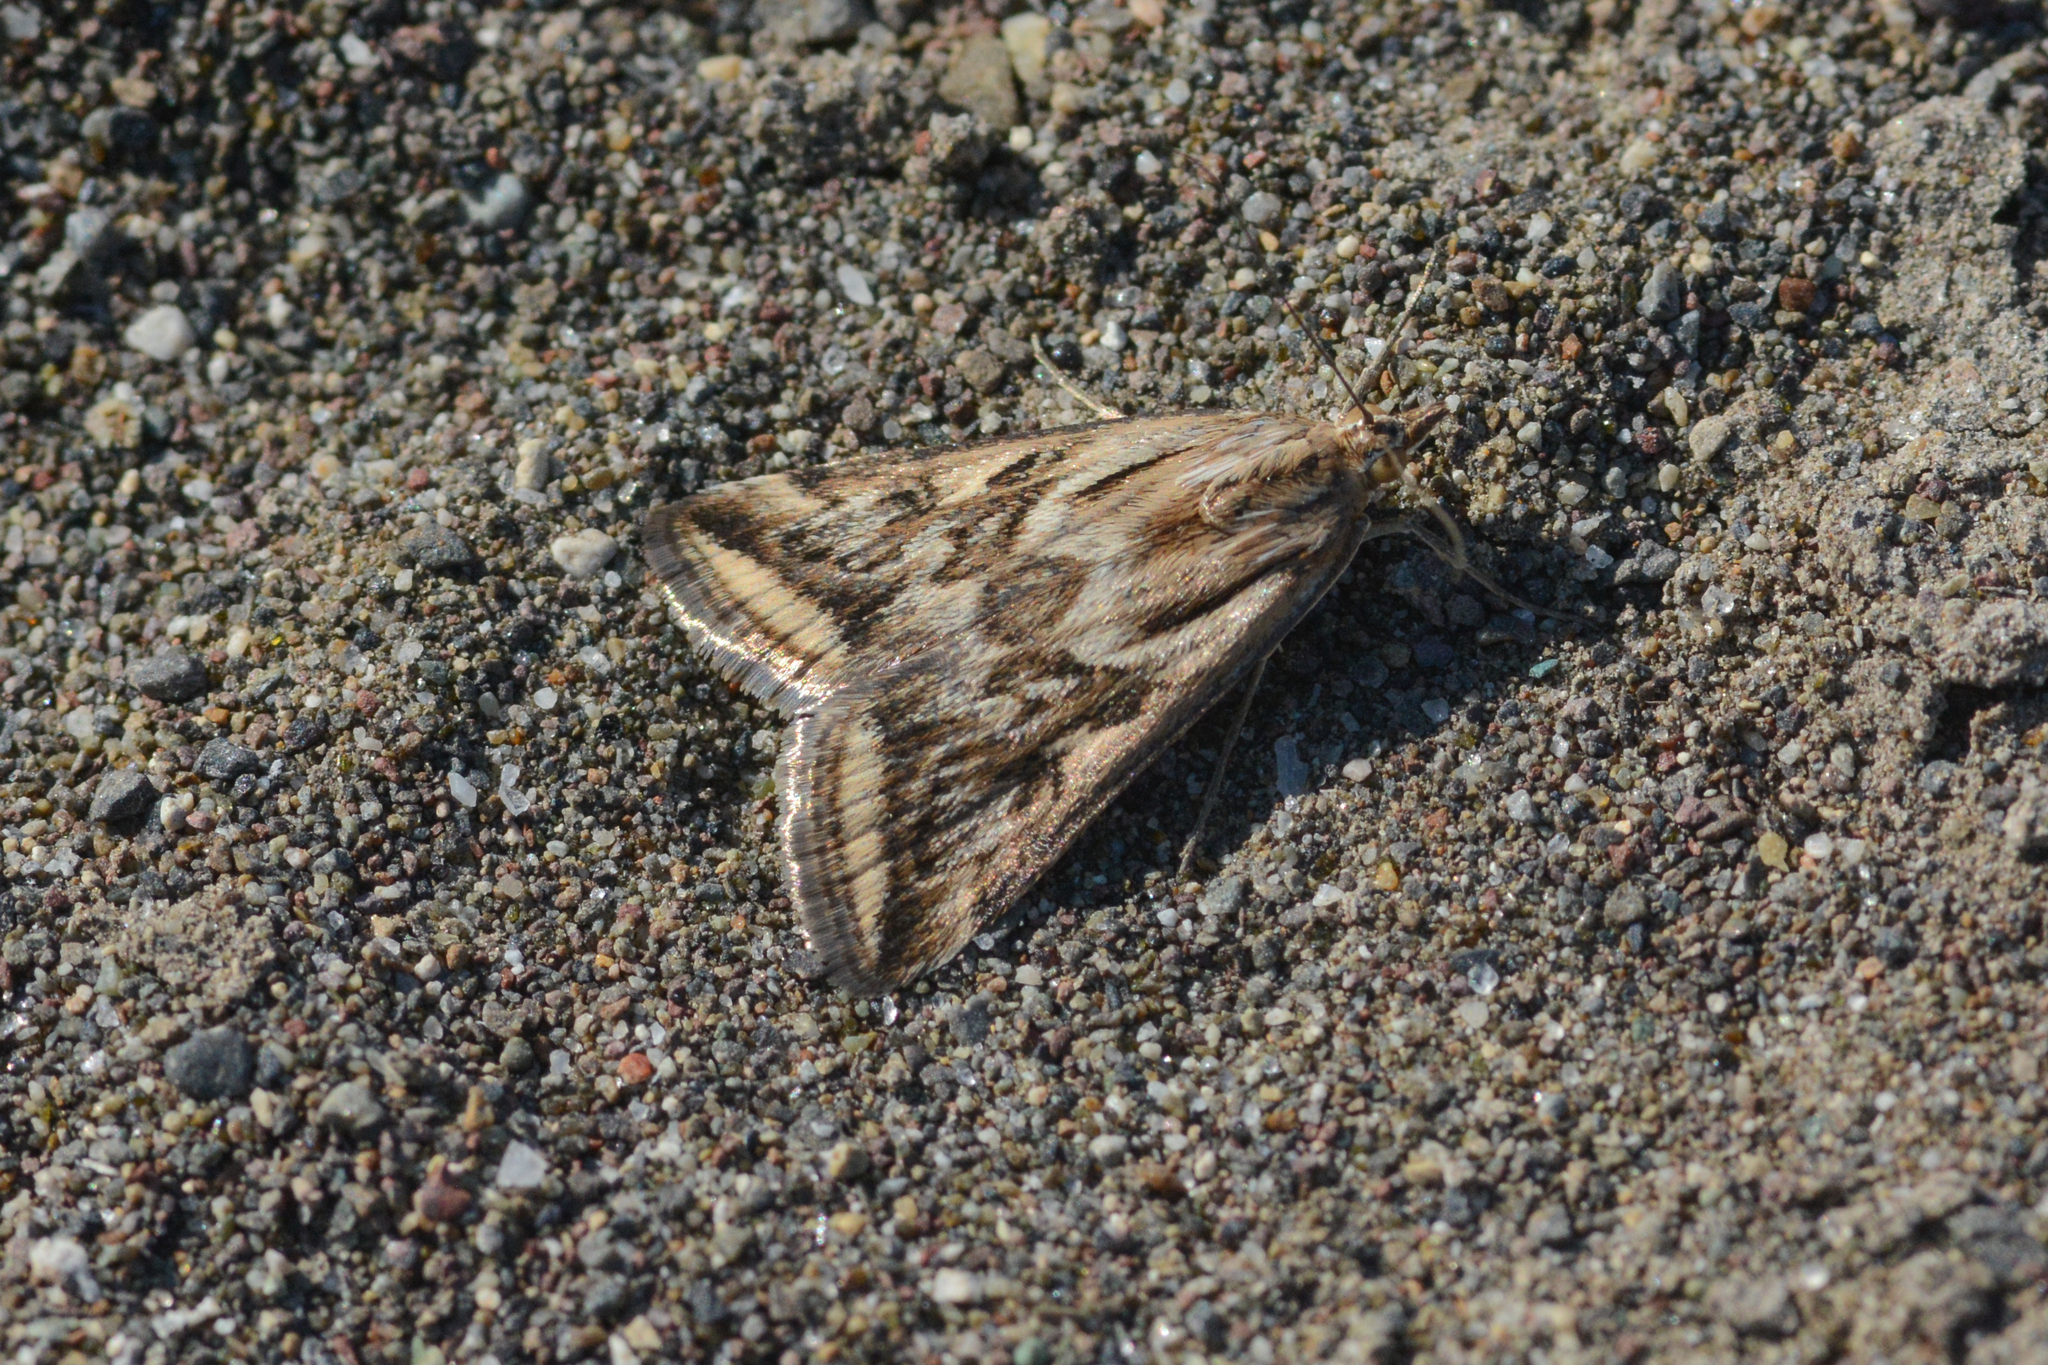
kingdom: Animalia
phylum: Arthropoda
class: Insecta
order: Lepidoptera
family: Crambidae
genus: Loxostege
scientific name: Loxostege cereralis
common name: Alfalfa webworm moth
